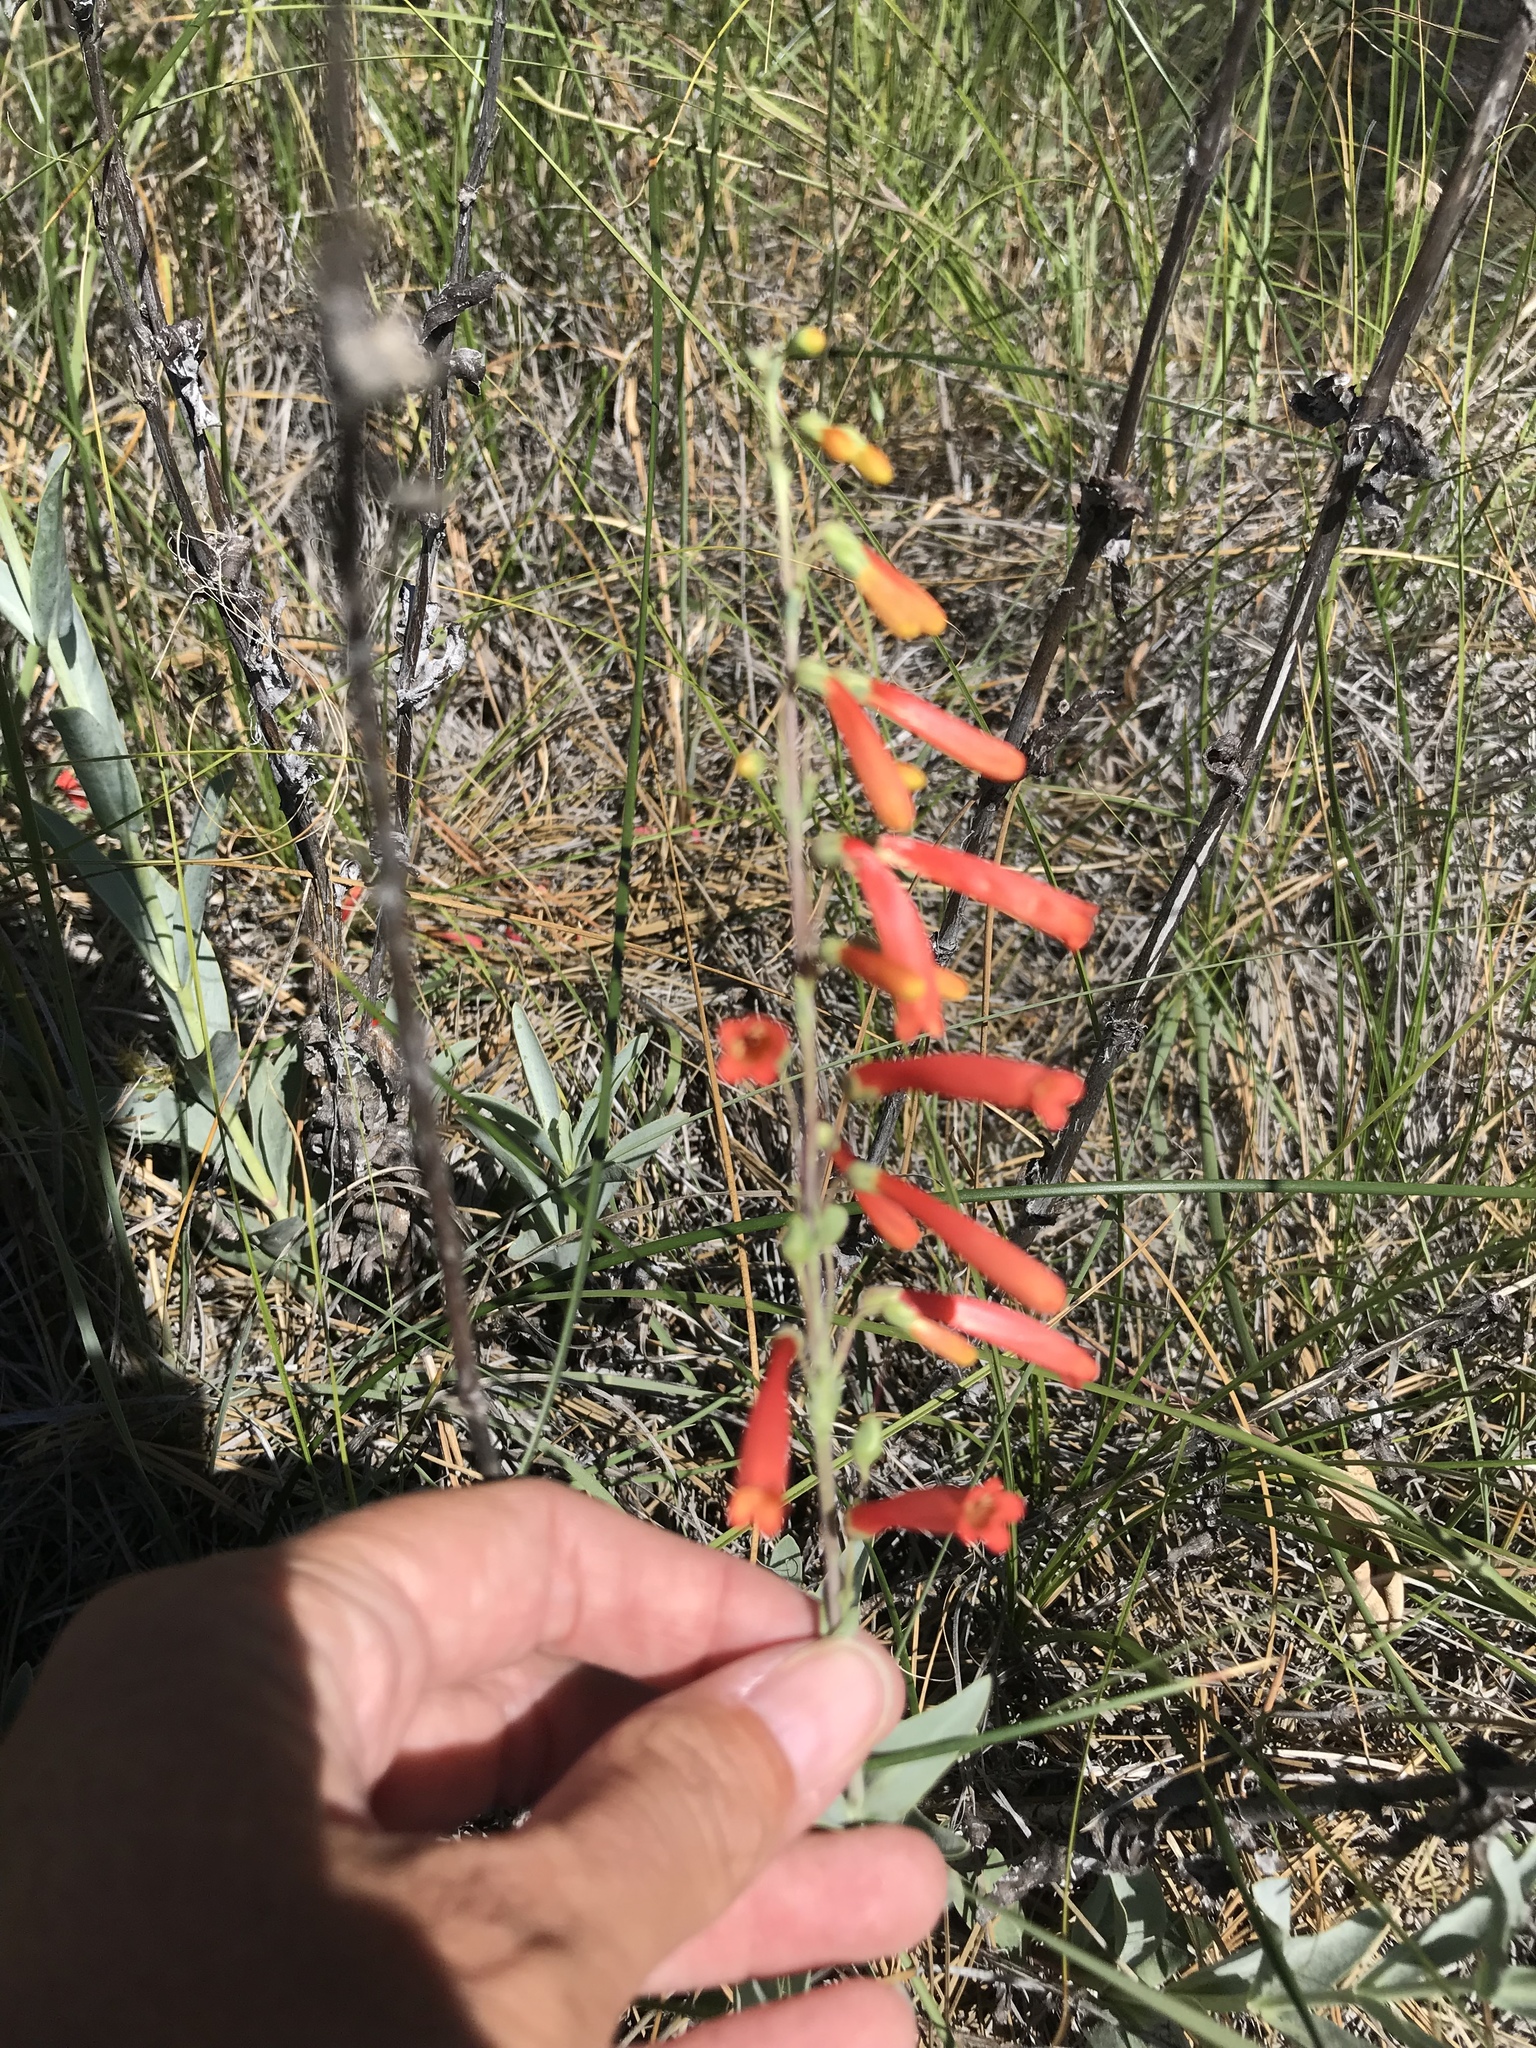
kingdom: Plantae
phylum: Tracheophyta
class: Magnoliopsida
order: Lamiales
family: Plantaginaceae
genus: Penstemon
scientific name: Penstemon centranthifolius
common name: Scarlet bugler
